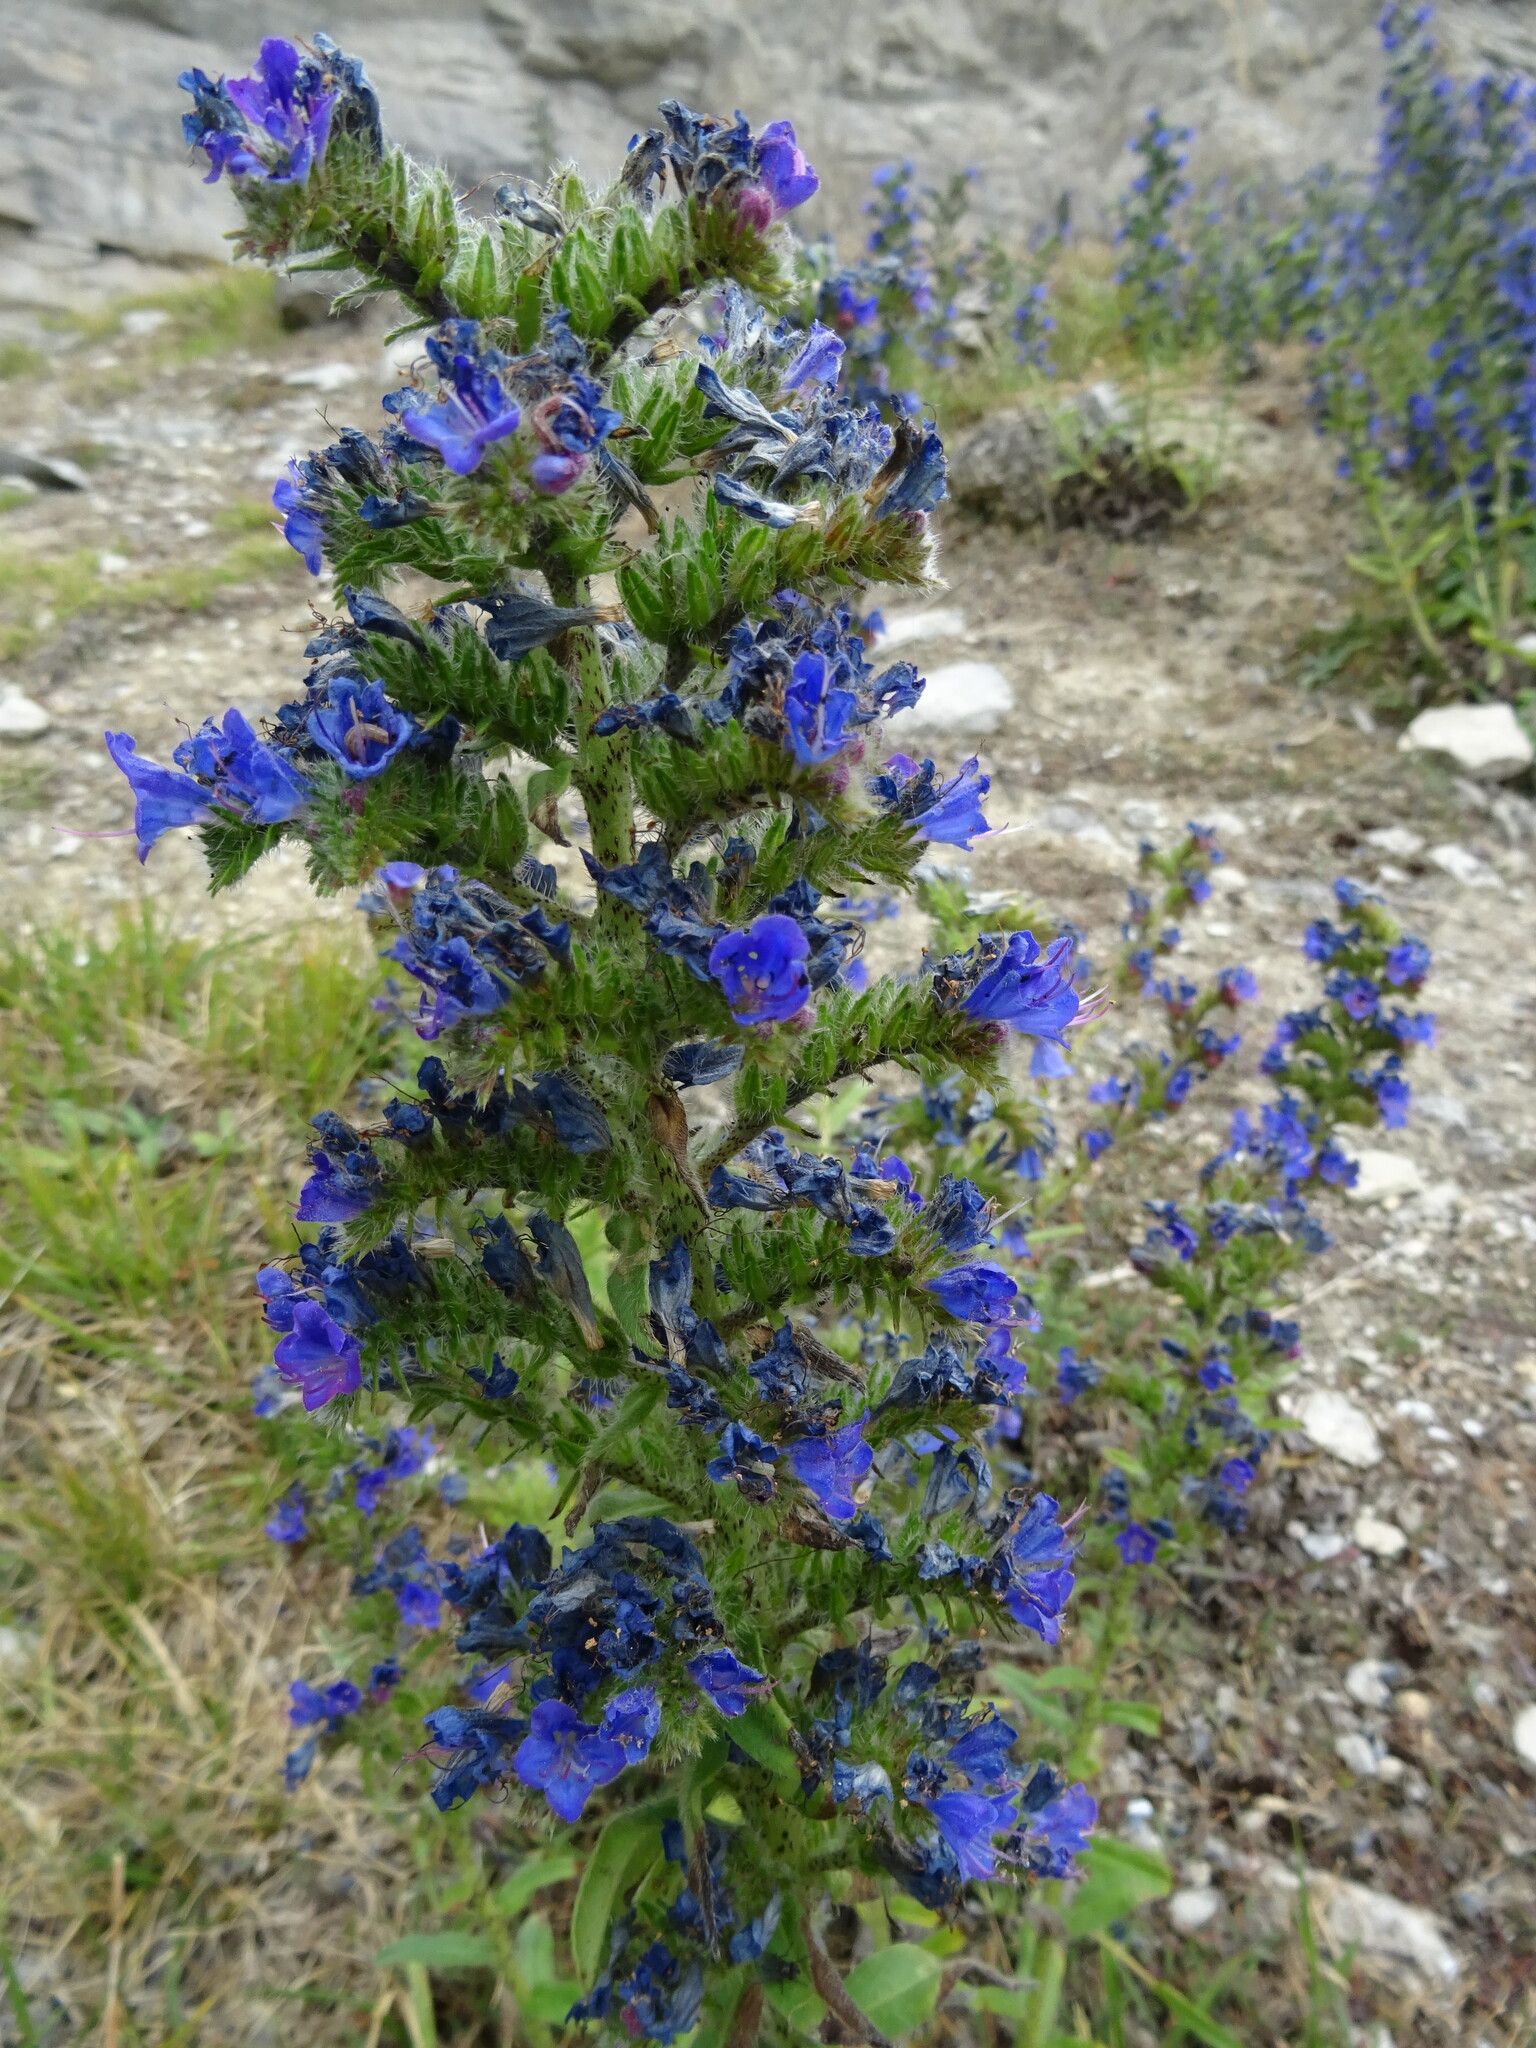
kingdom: Plantae
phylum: Tracheophyta
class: Magnoliopsida
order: Boraginales
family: Boraginaceae
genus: Echium
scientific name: Echium vulgare
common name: Common viper's bugloss
